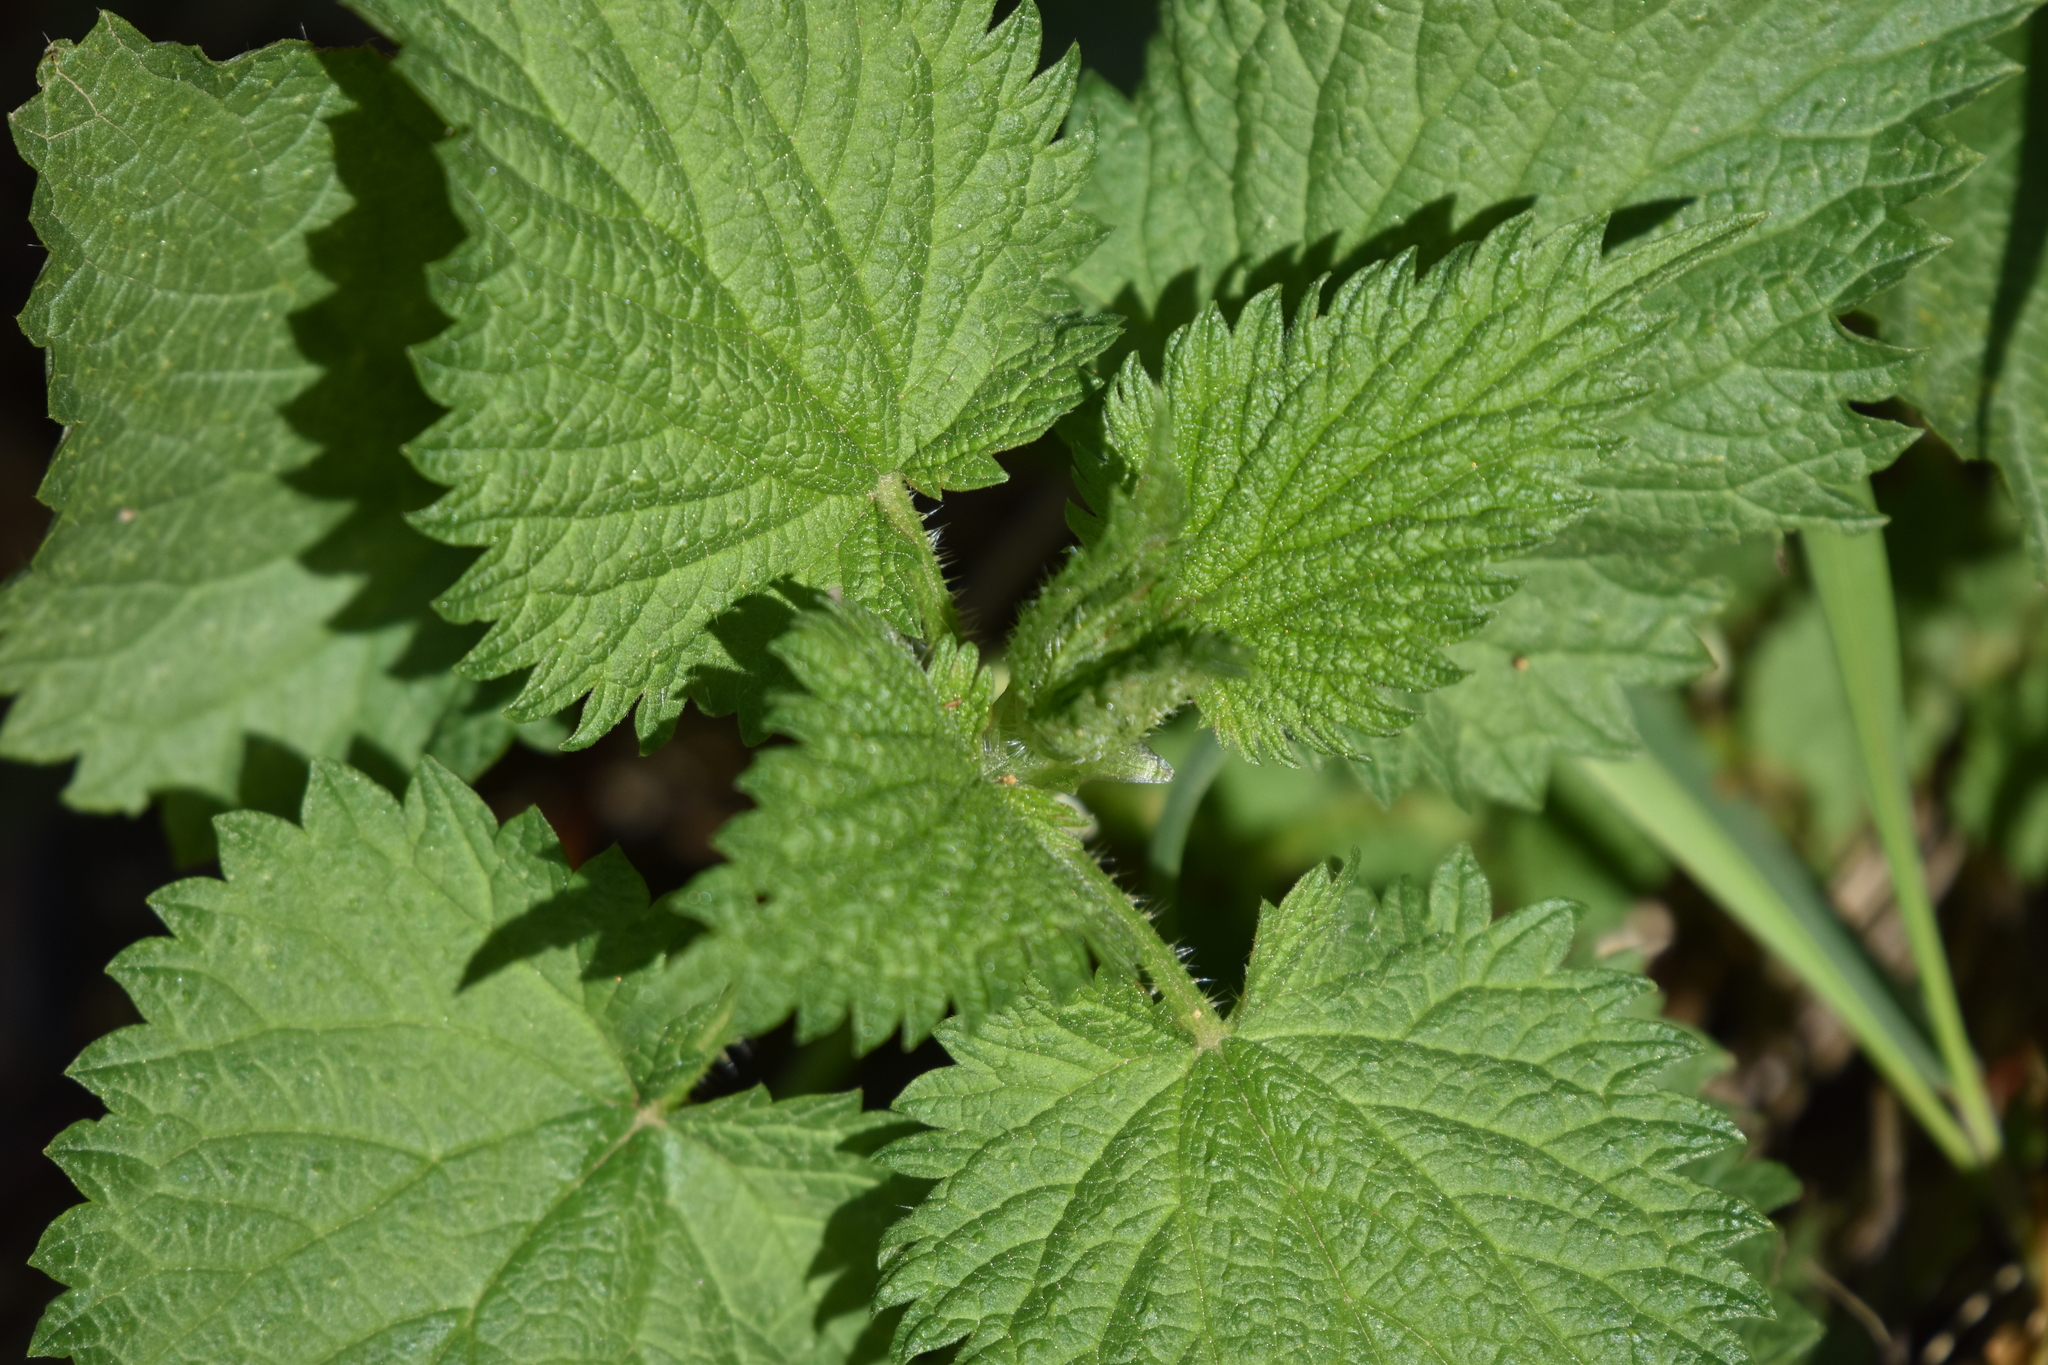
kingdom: Plantae
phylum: Tracheophyta
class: Magnoliopsida
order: Rosales
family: Urticaceae
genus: Urtica
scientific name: Urtica dioica
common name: Common nettle
